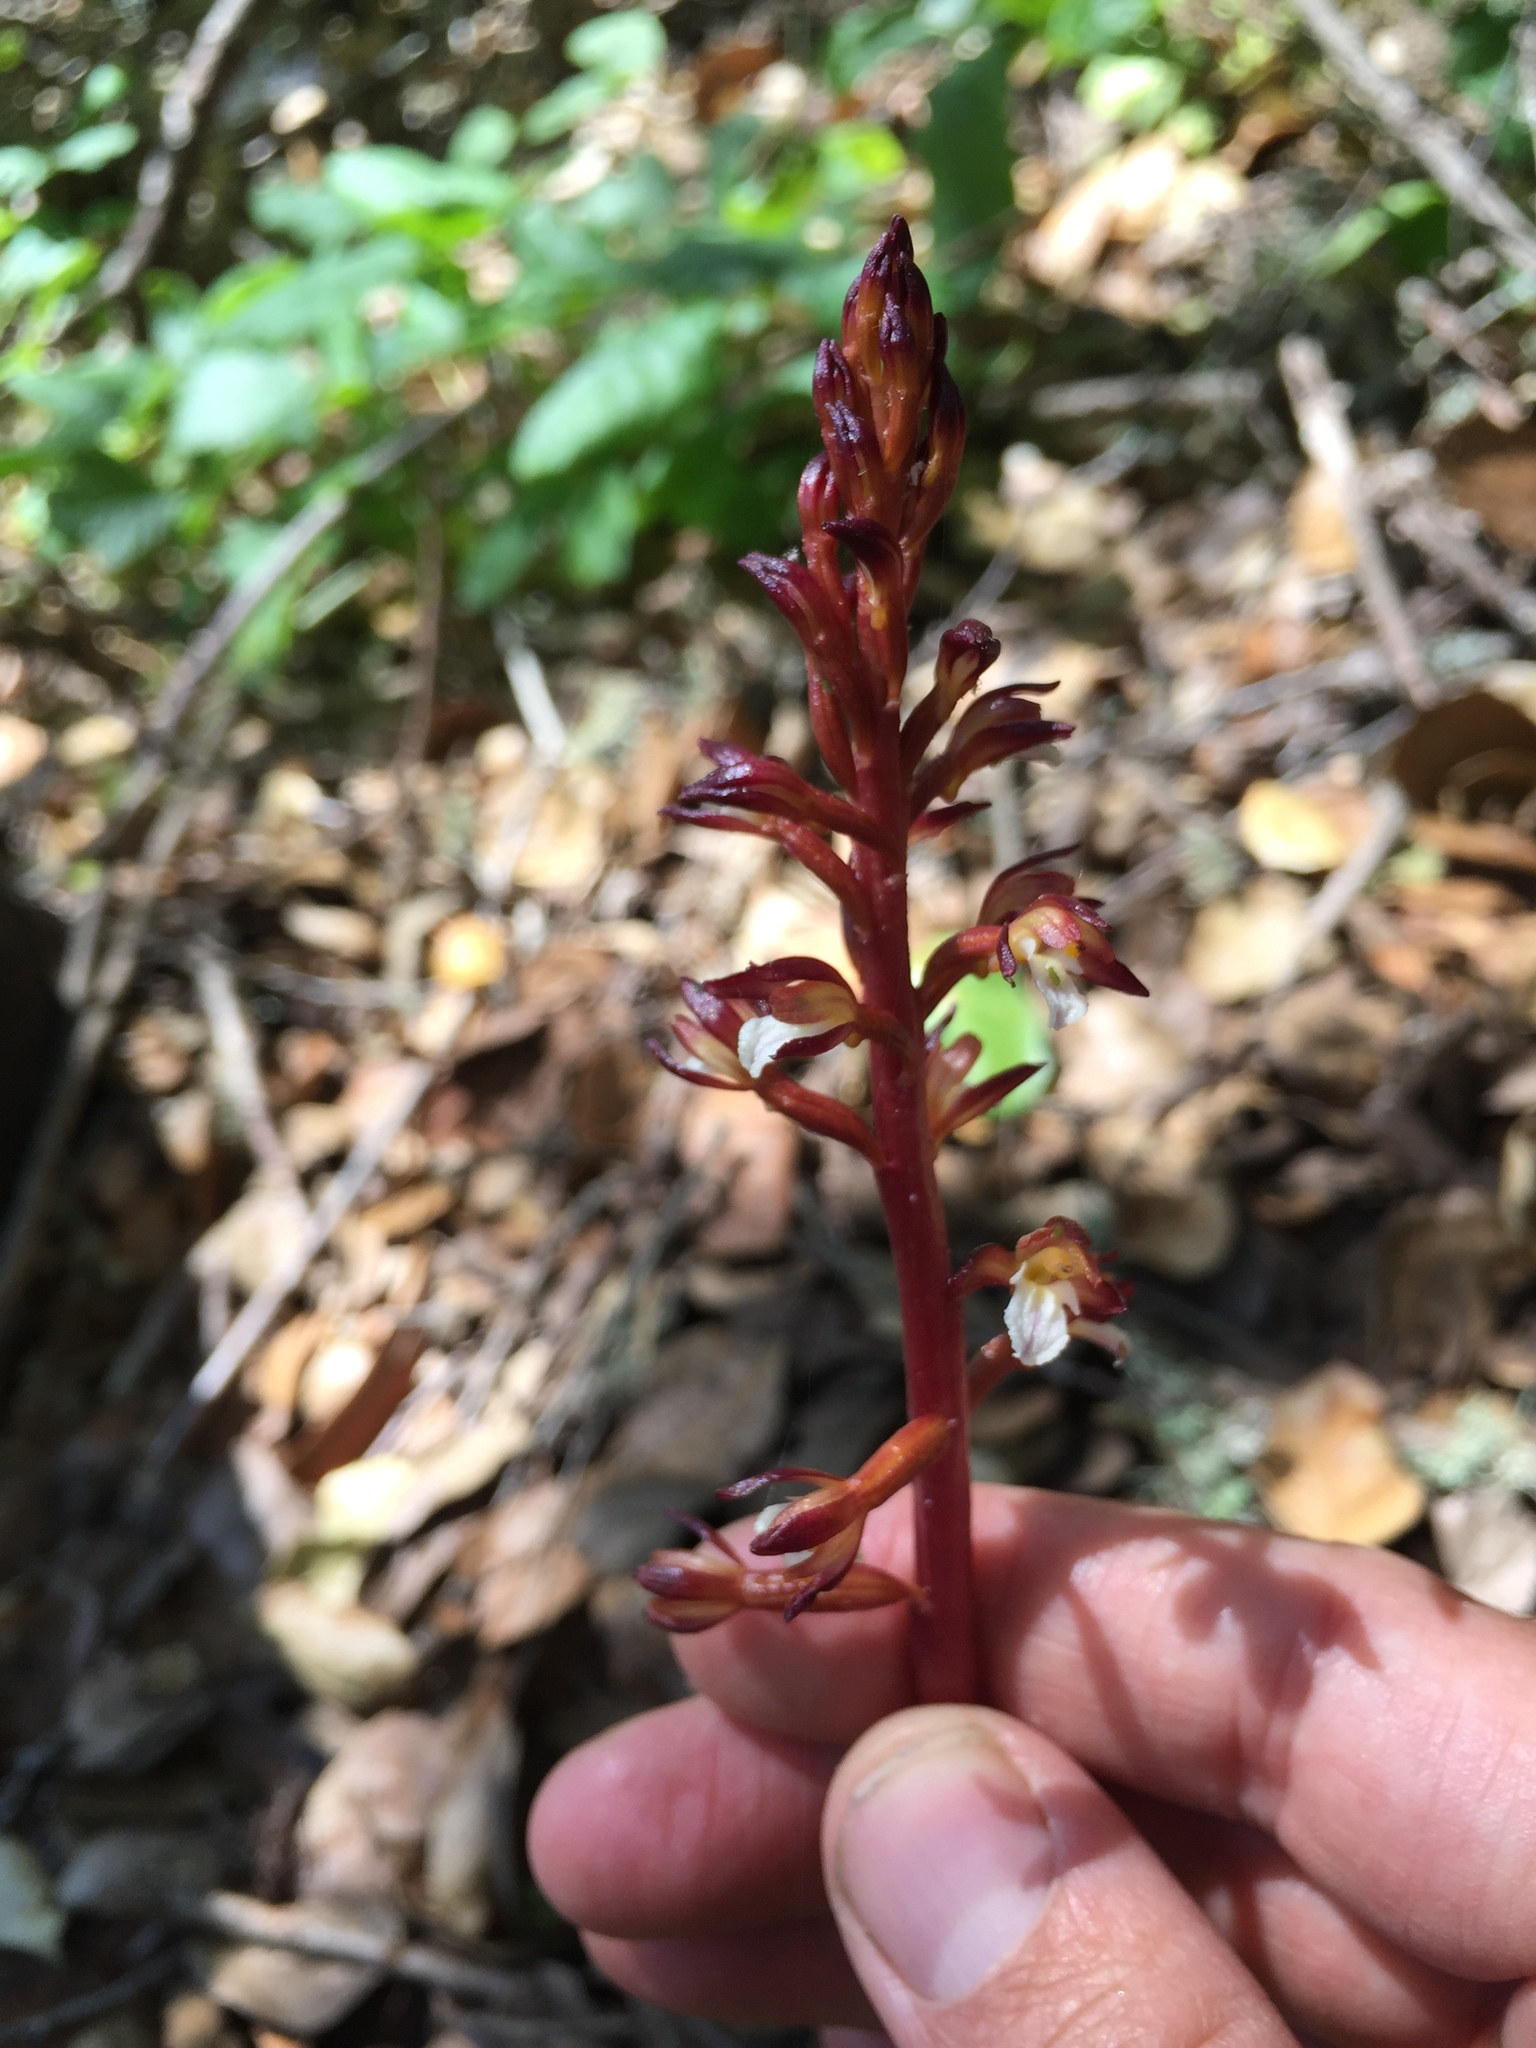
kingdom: Plantae
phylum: Tracheophyta
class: Liliopsida
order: Asparagales
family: Orchidaceae
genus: Corallorhiza
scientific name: Corallorhiza maculata
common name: Spotted coralroot
